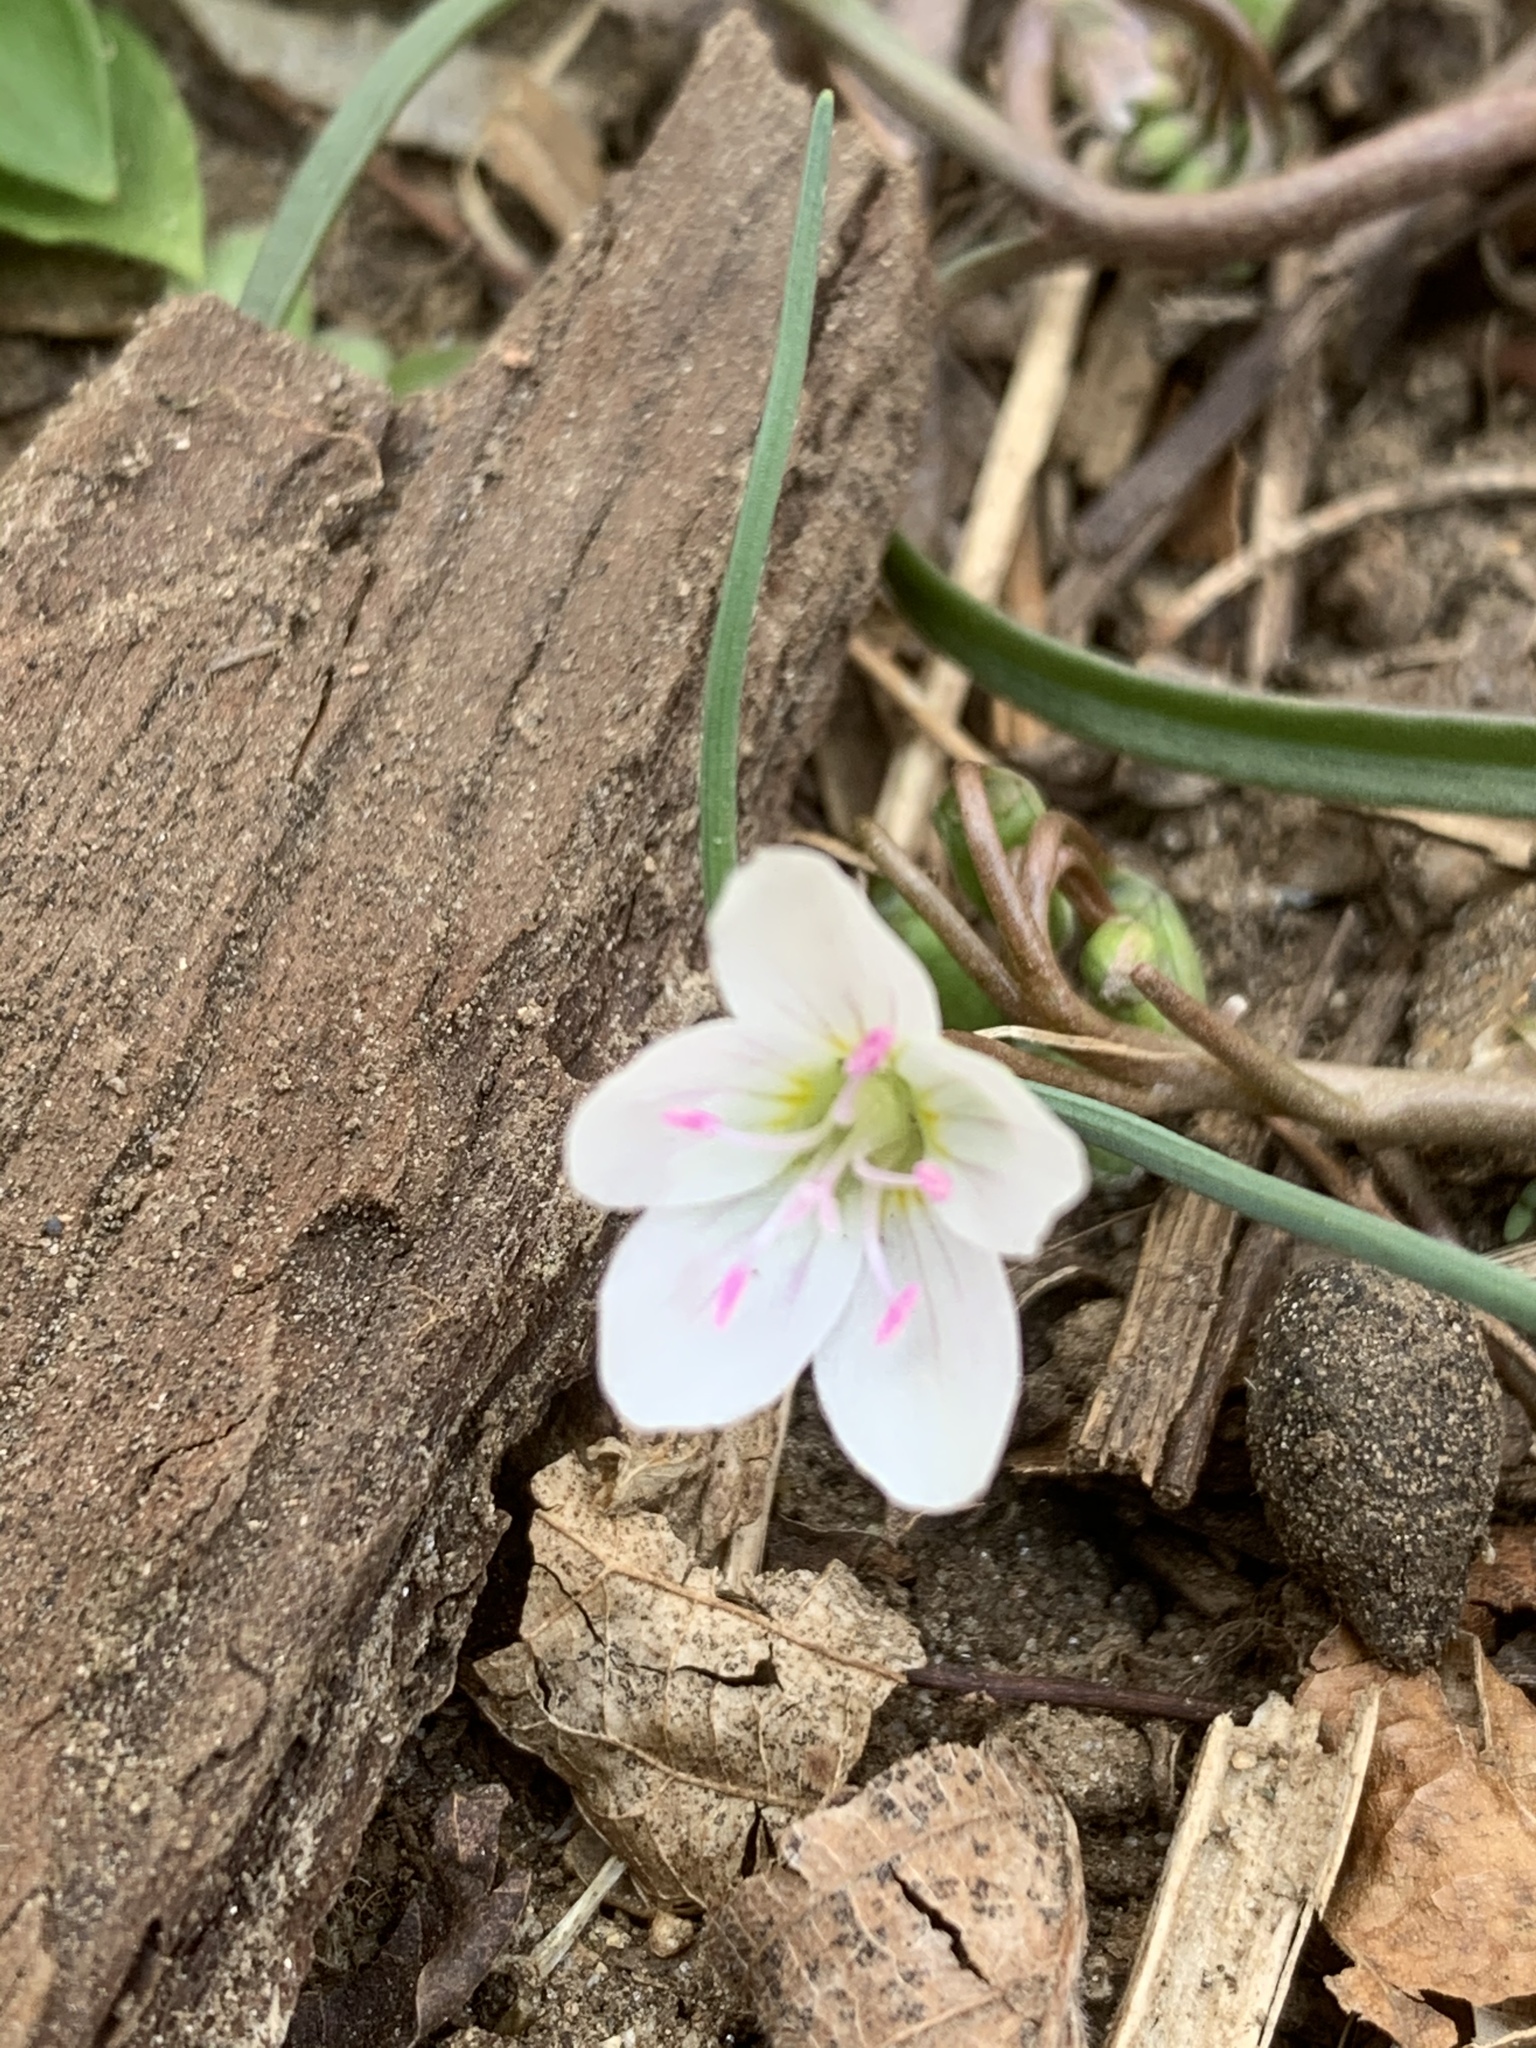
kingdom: Plantae
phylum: Tracheophyta
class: Magnoliopsida
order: Caryophyllales
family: Montiaceae
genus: Claytonia
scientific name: Claytonia virginica
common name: Virginia springbeauty
